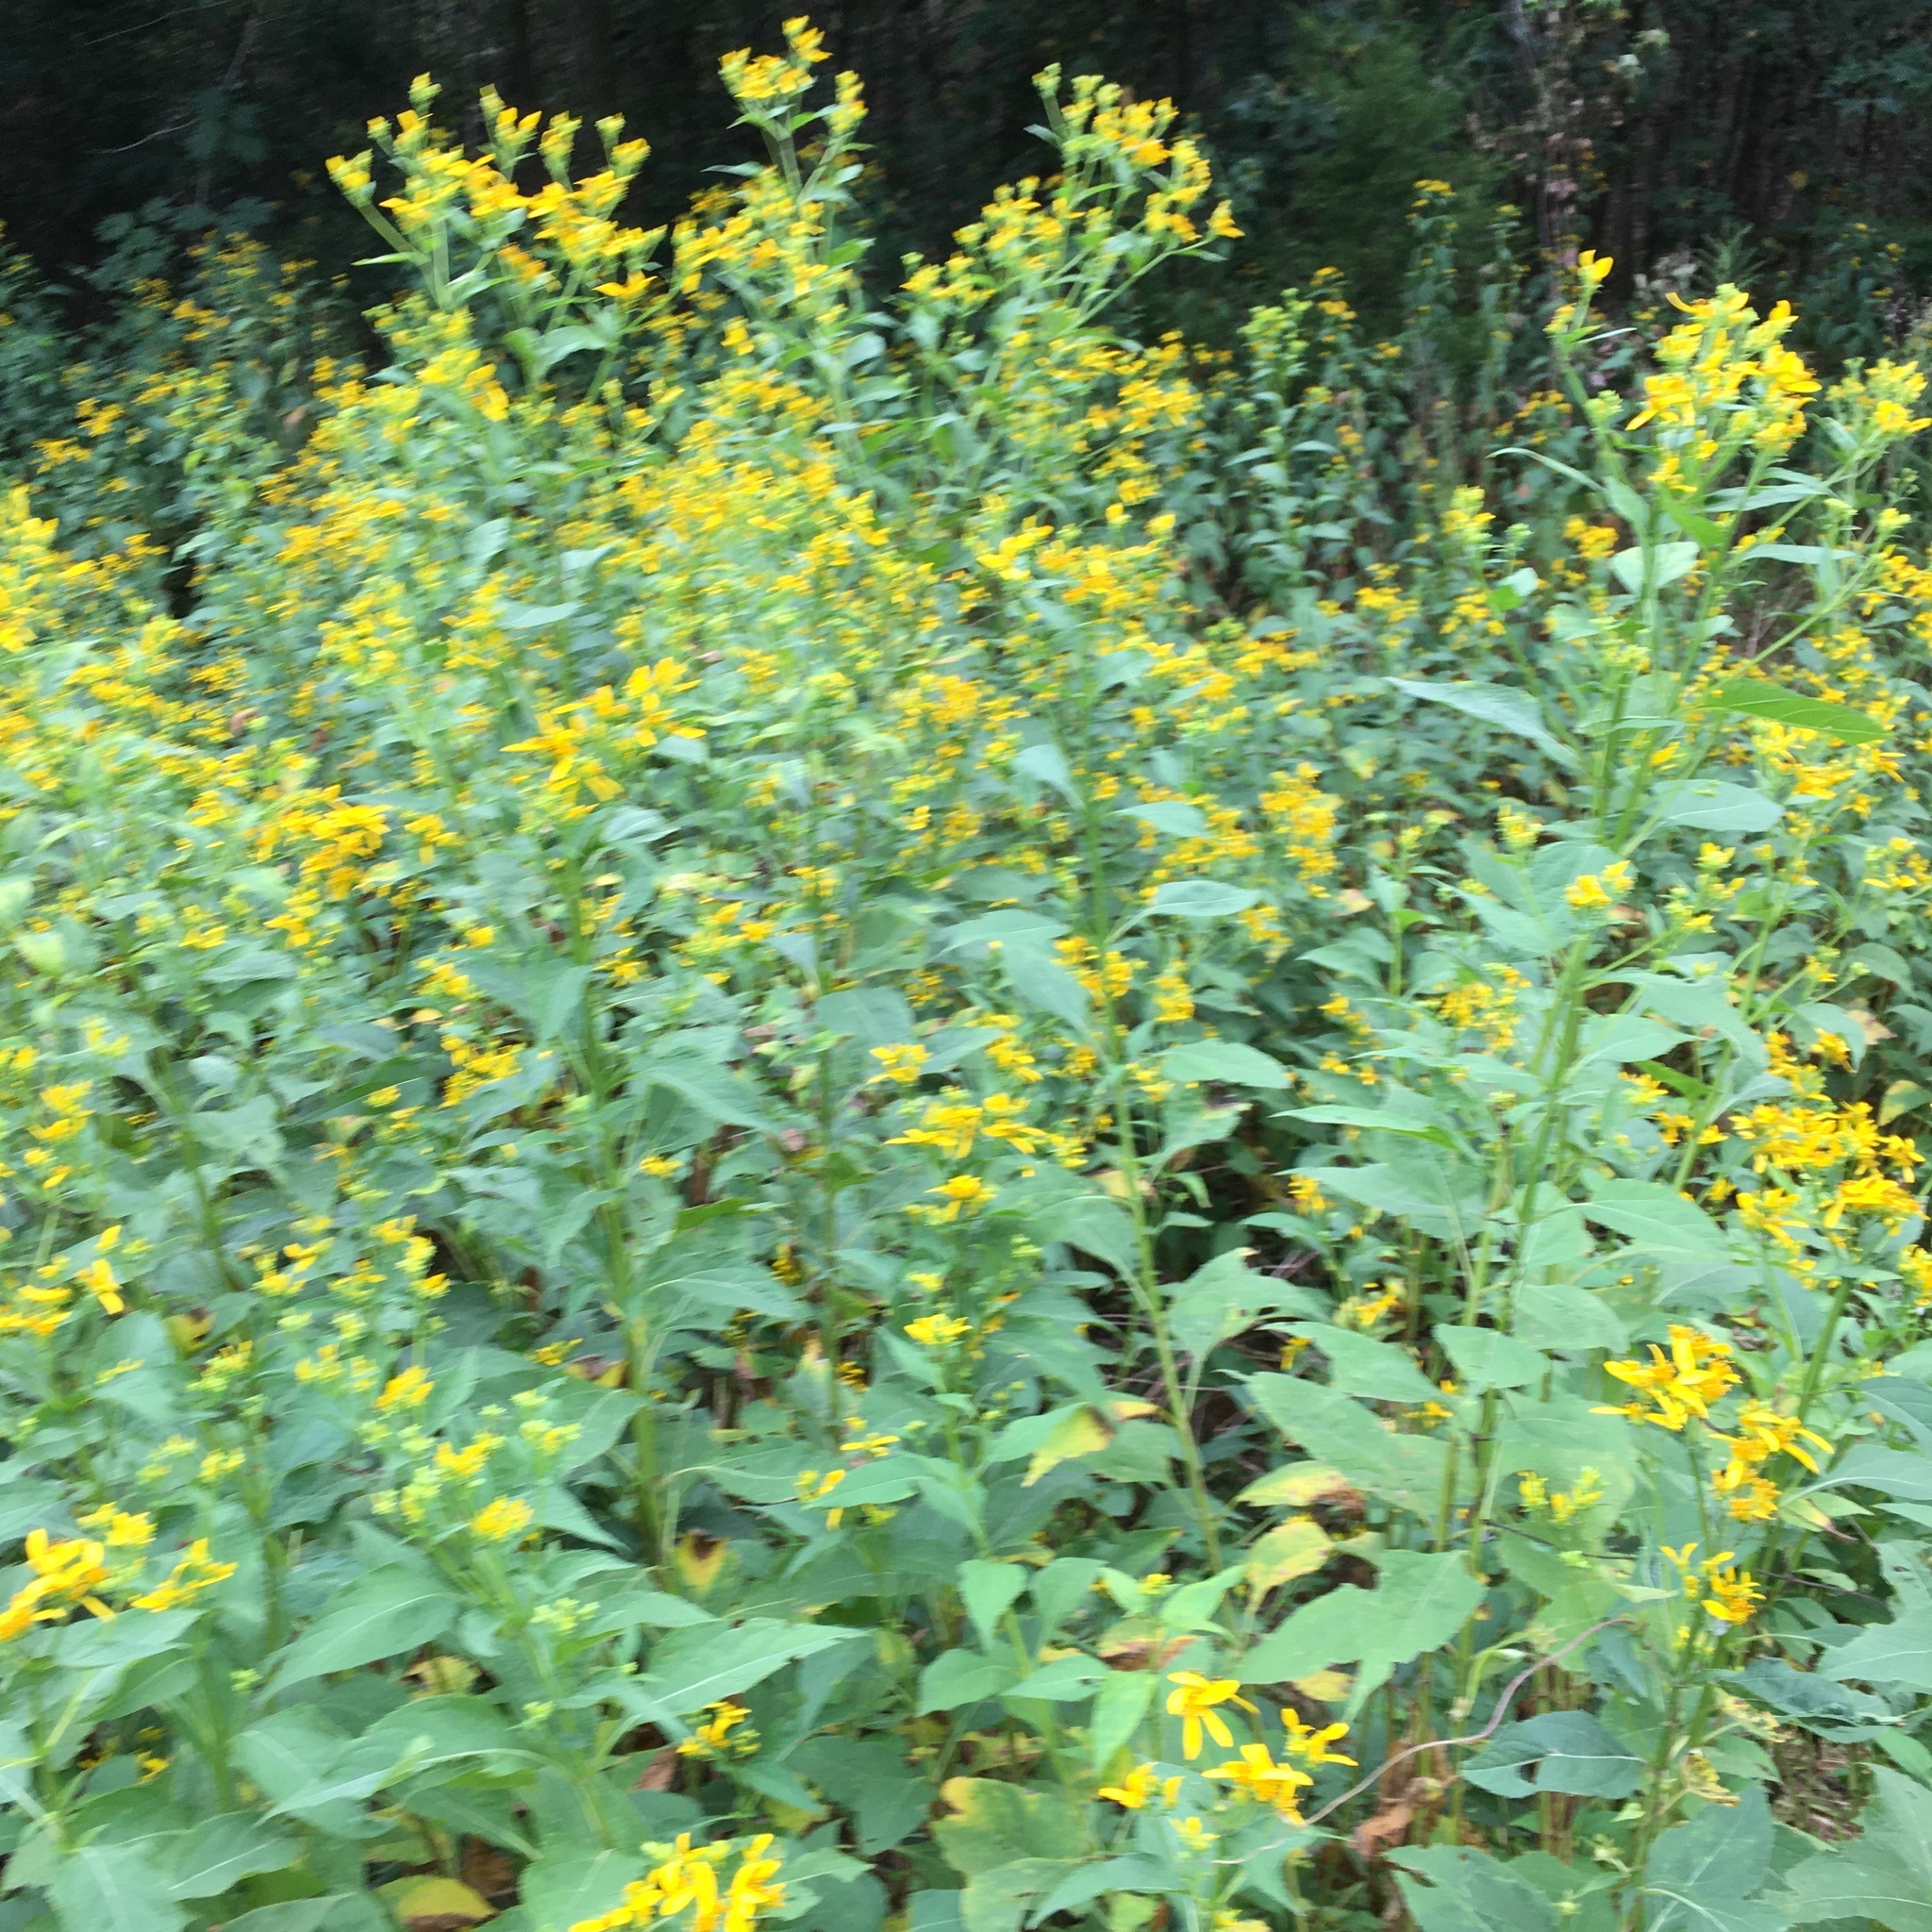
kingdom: Plantae
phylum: Tracheophyta
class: Magnoliopsida
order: Asterales
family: Asteraceae
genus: Verbesina
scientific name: Verbesina occidentalis
